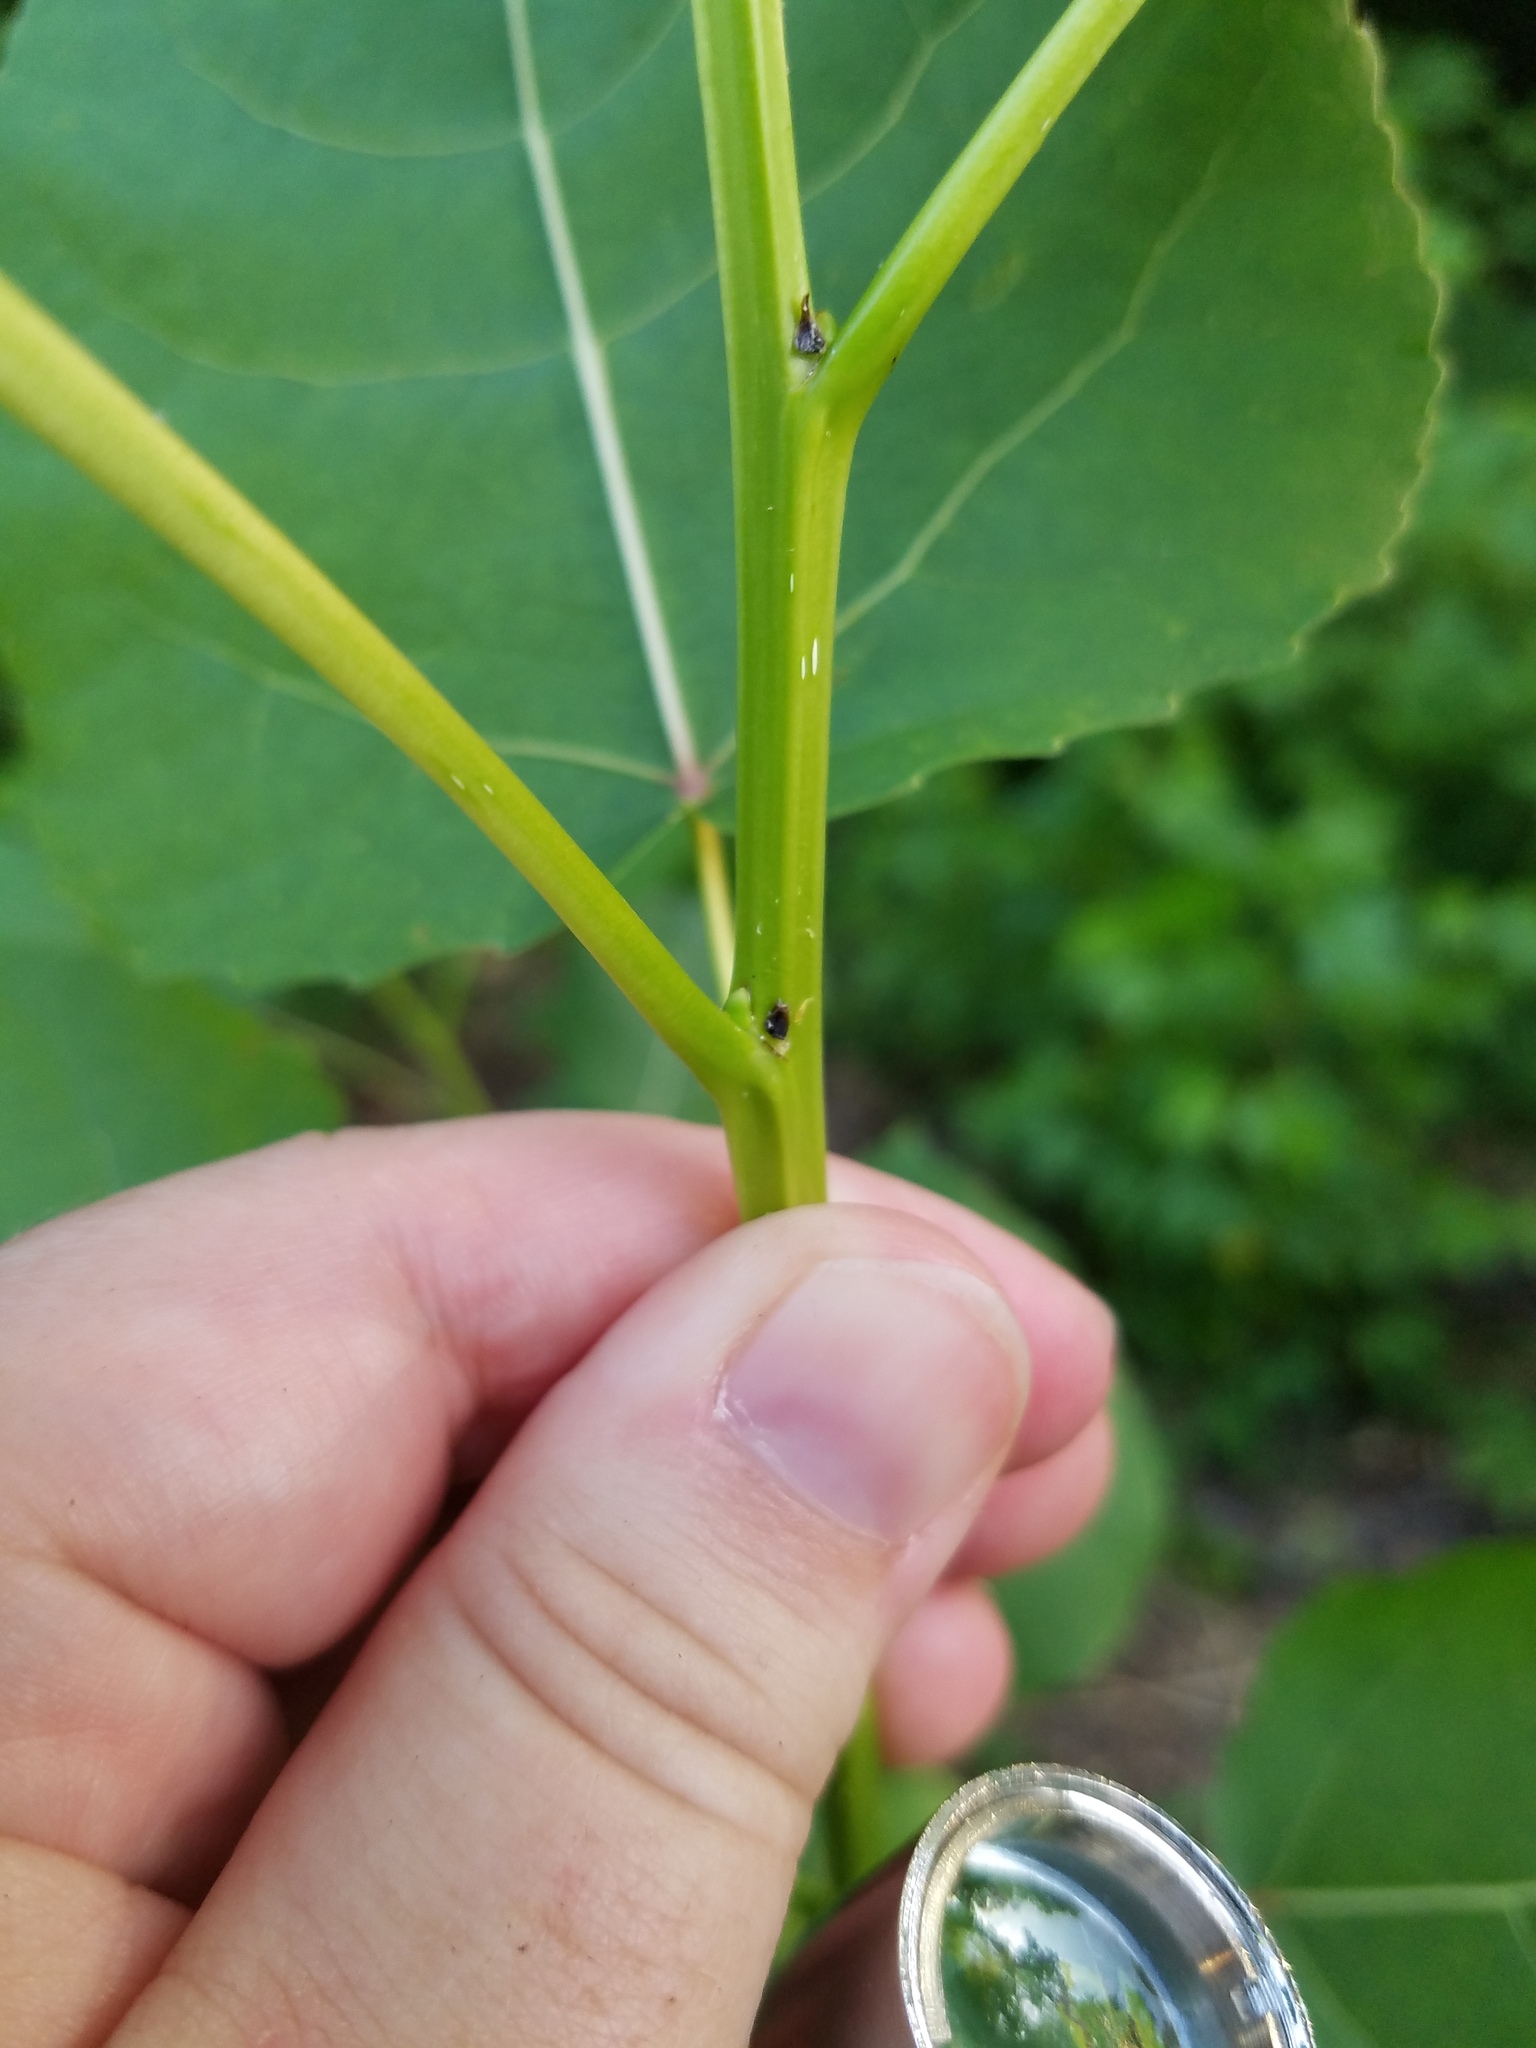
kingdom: Plantae
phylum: Tracheophyta
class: Magnoliopsida
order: Malpighiales
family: Salicaceae
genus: Populus
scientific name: Populus deltoides
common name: Eastern cottonwood
